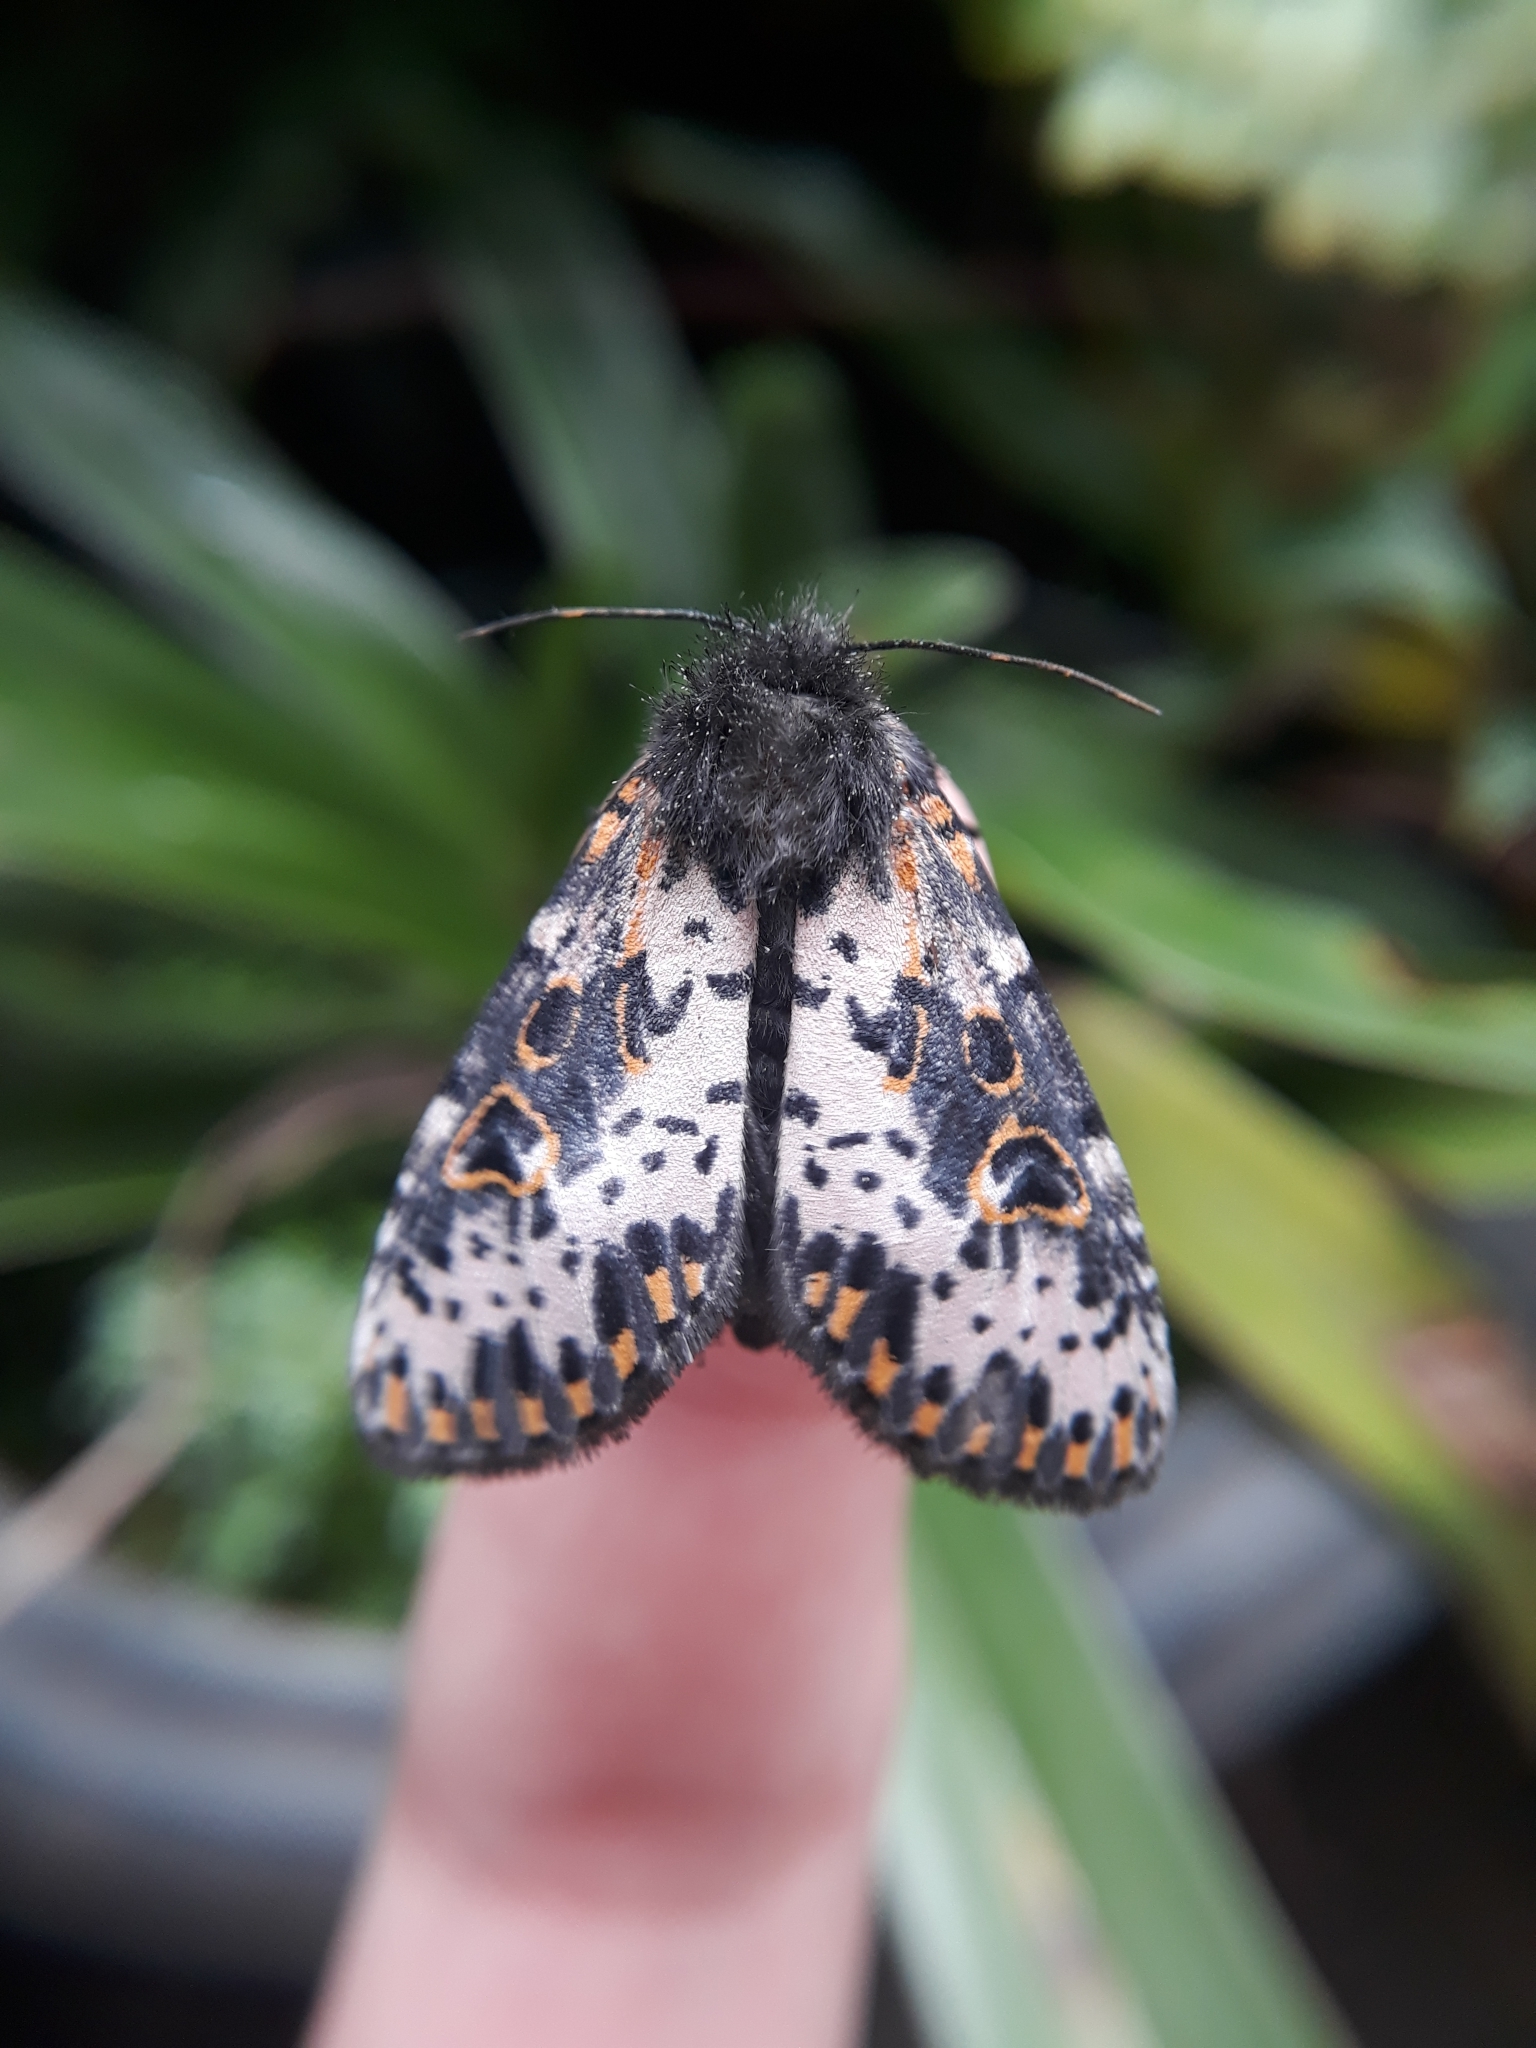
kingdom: Animalia
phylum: Arthropoda
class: Insecta
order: Lepidoptera
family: Noctuidae
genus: Xanthopastis
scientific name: Xanthopastis timais
